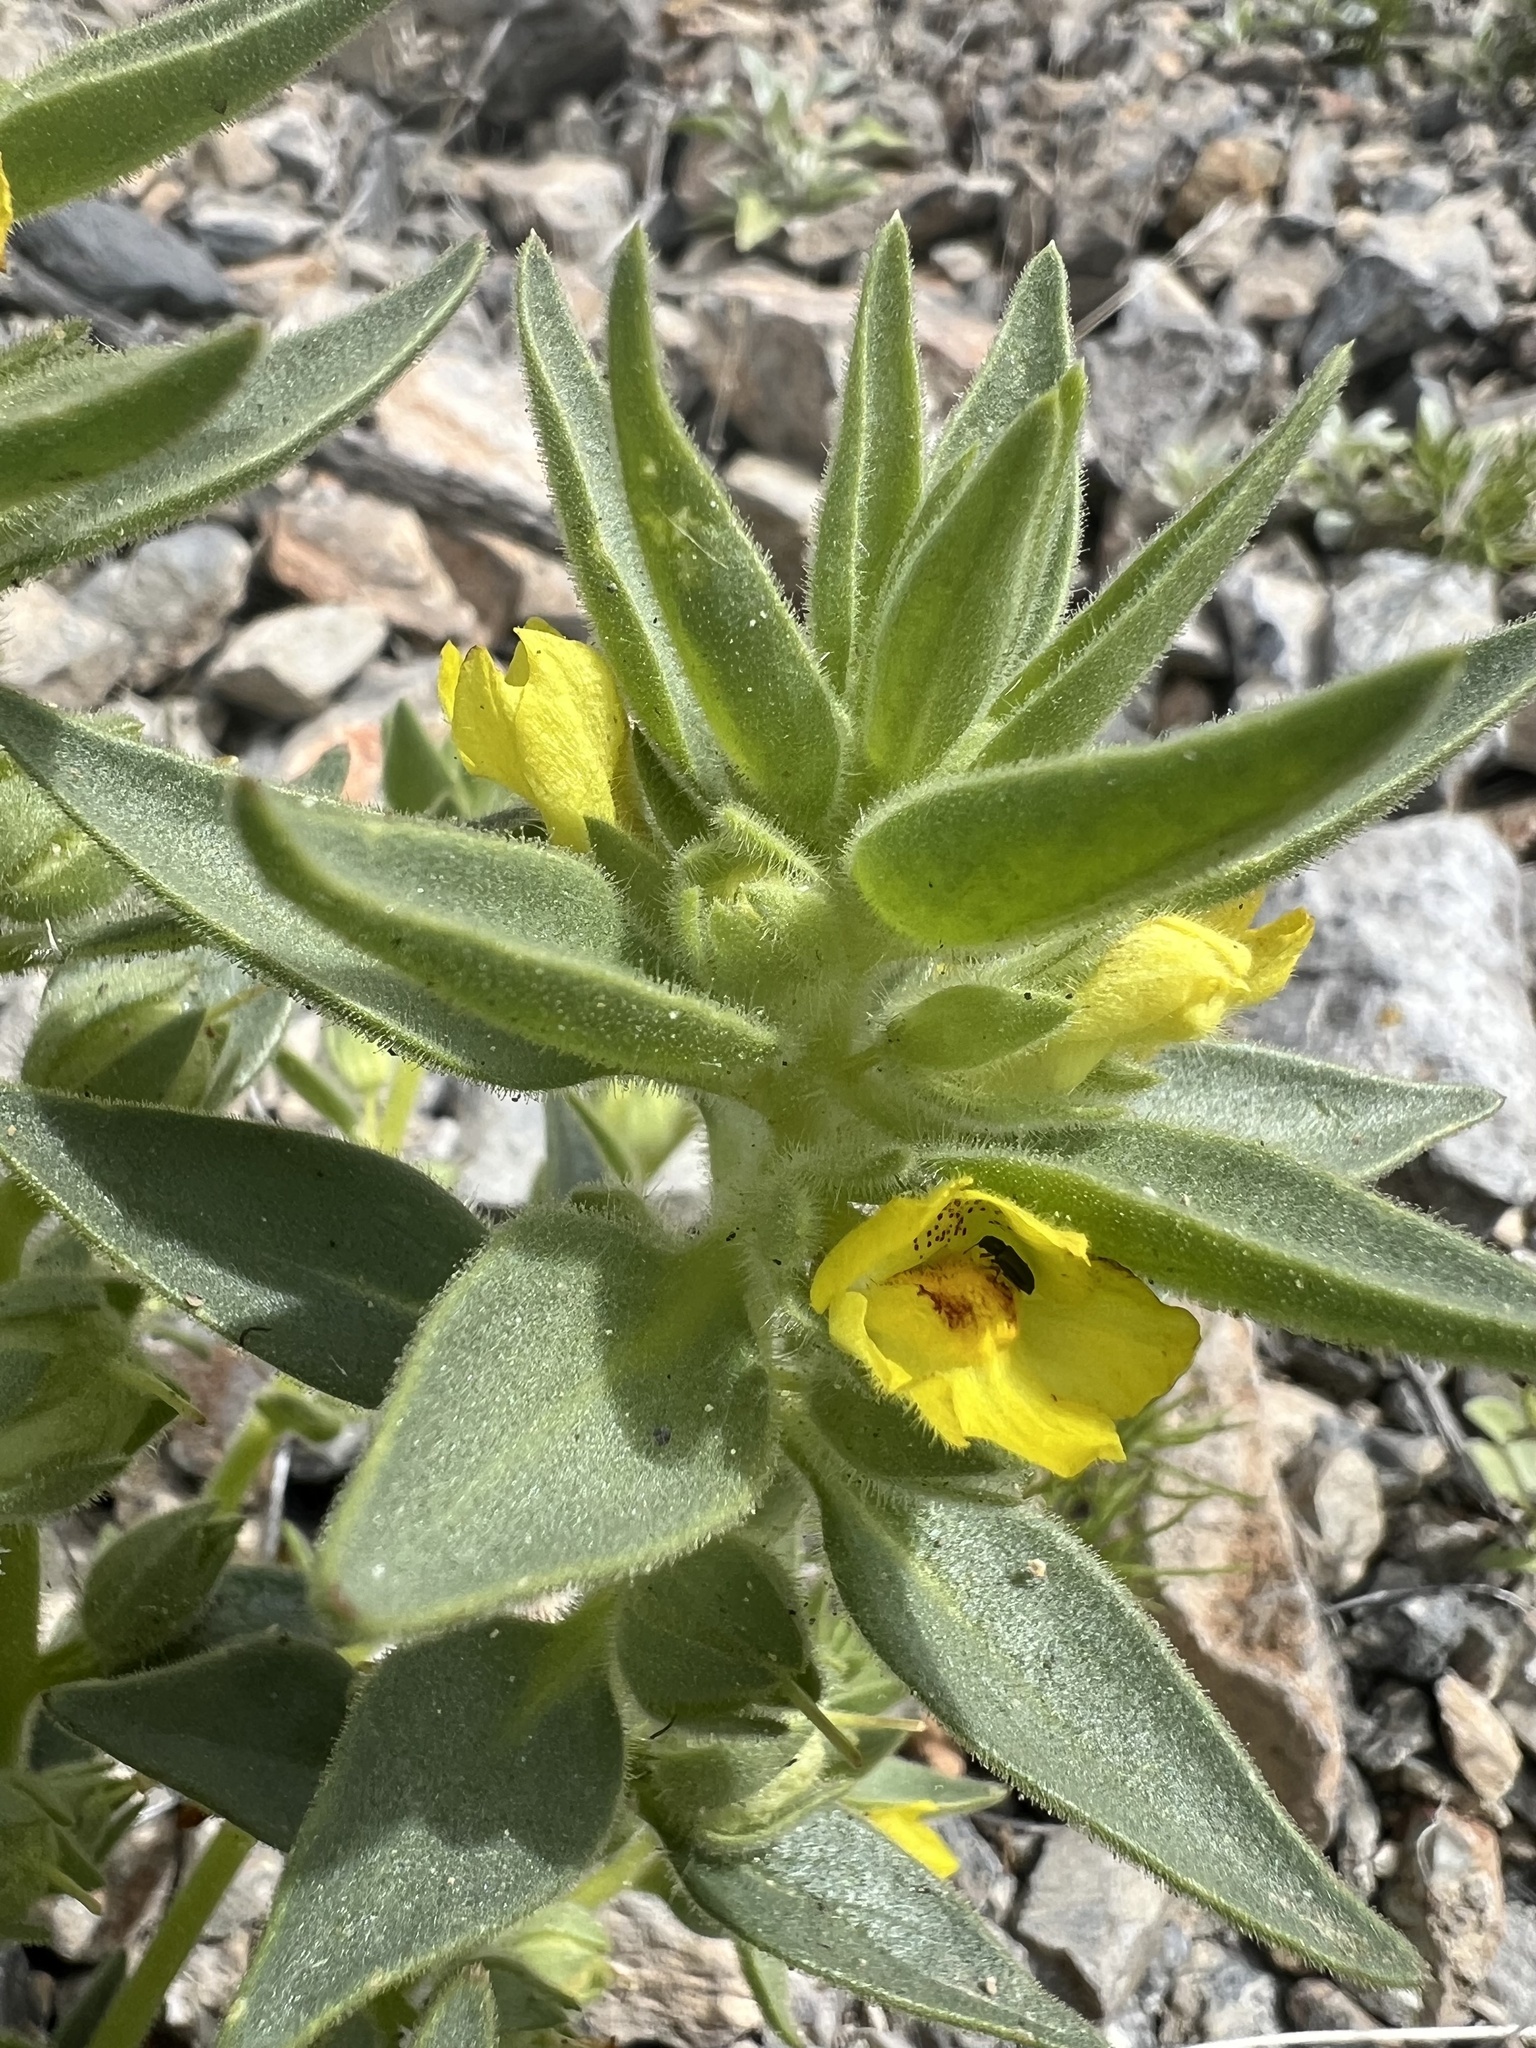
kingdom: Plantae
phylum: Tracheophyta
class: Magnoliopsida
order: Lamiales
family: Plantaginaceae
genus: Mohavea
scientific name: Mohavea breviflora
